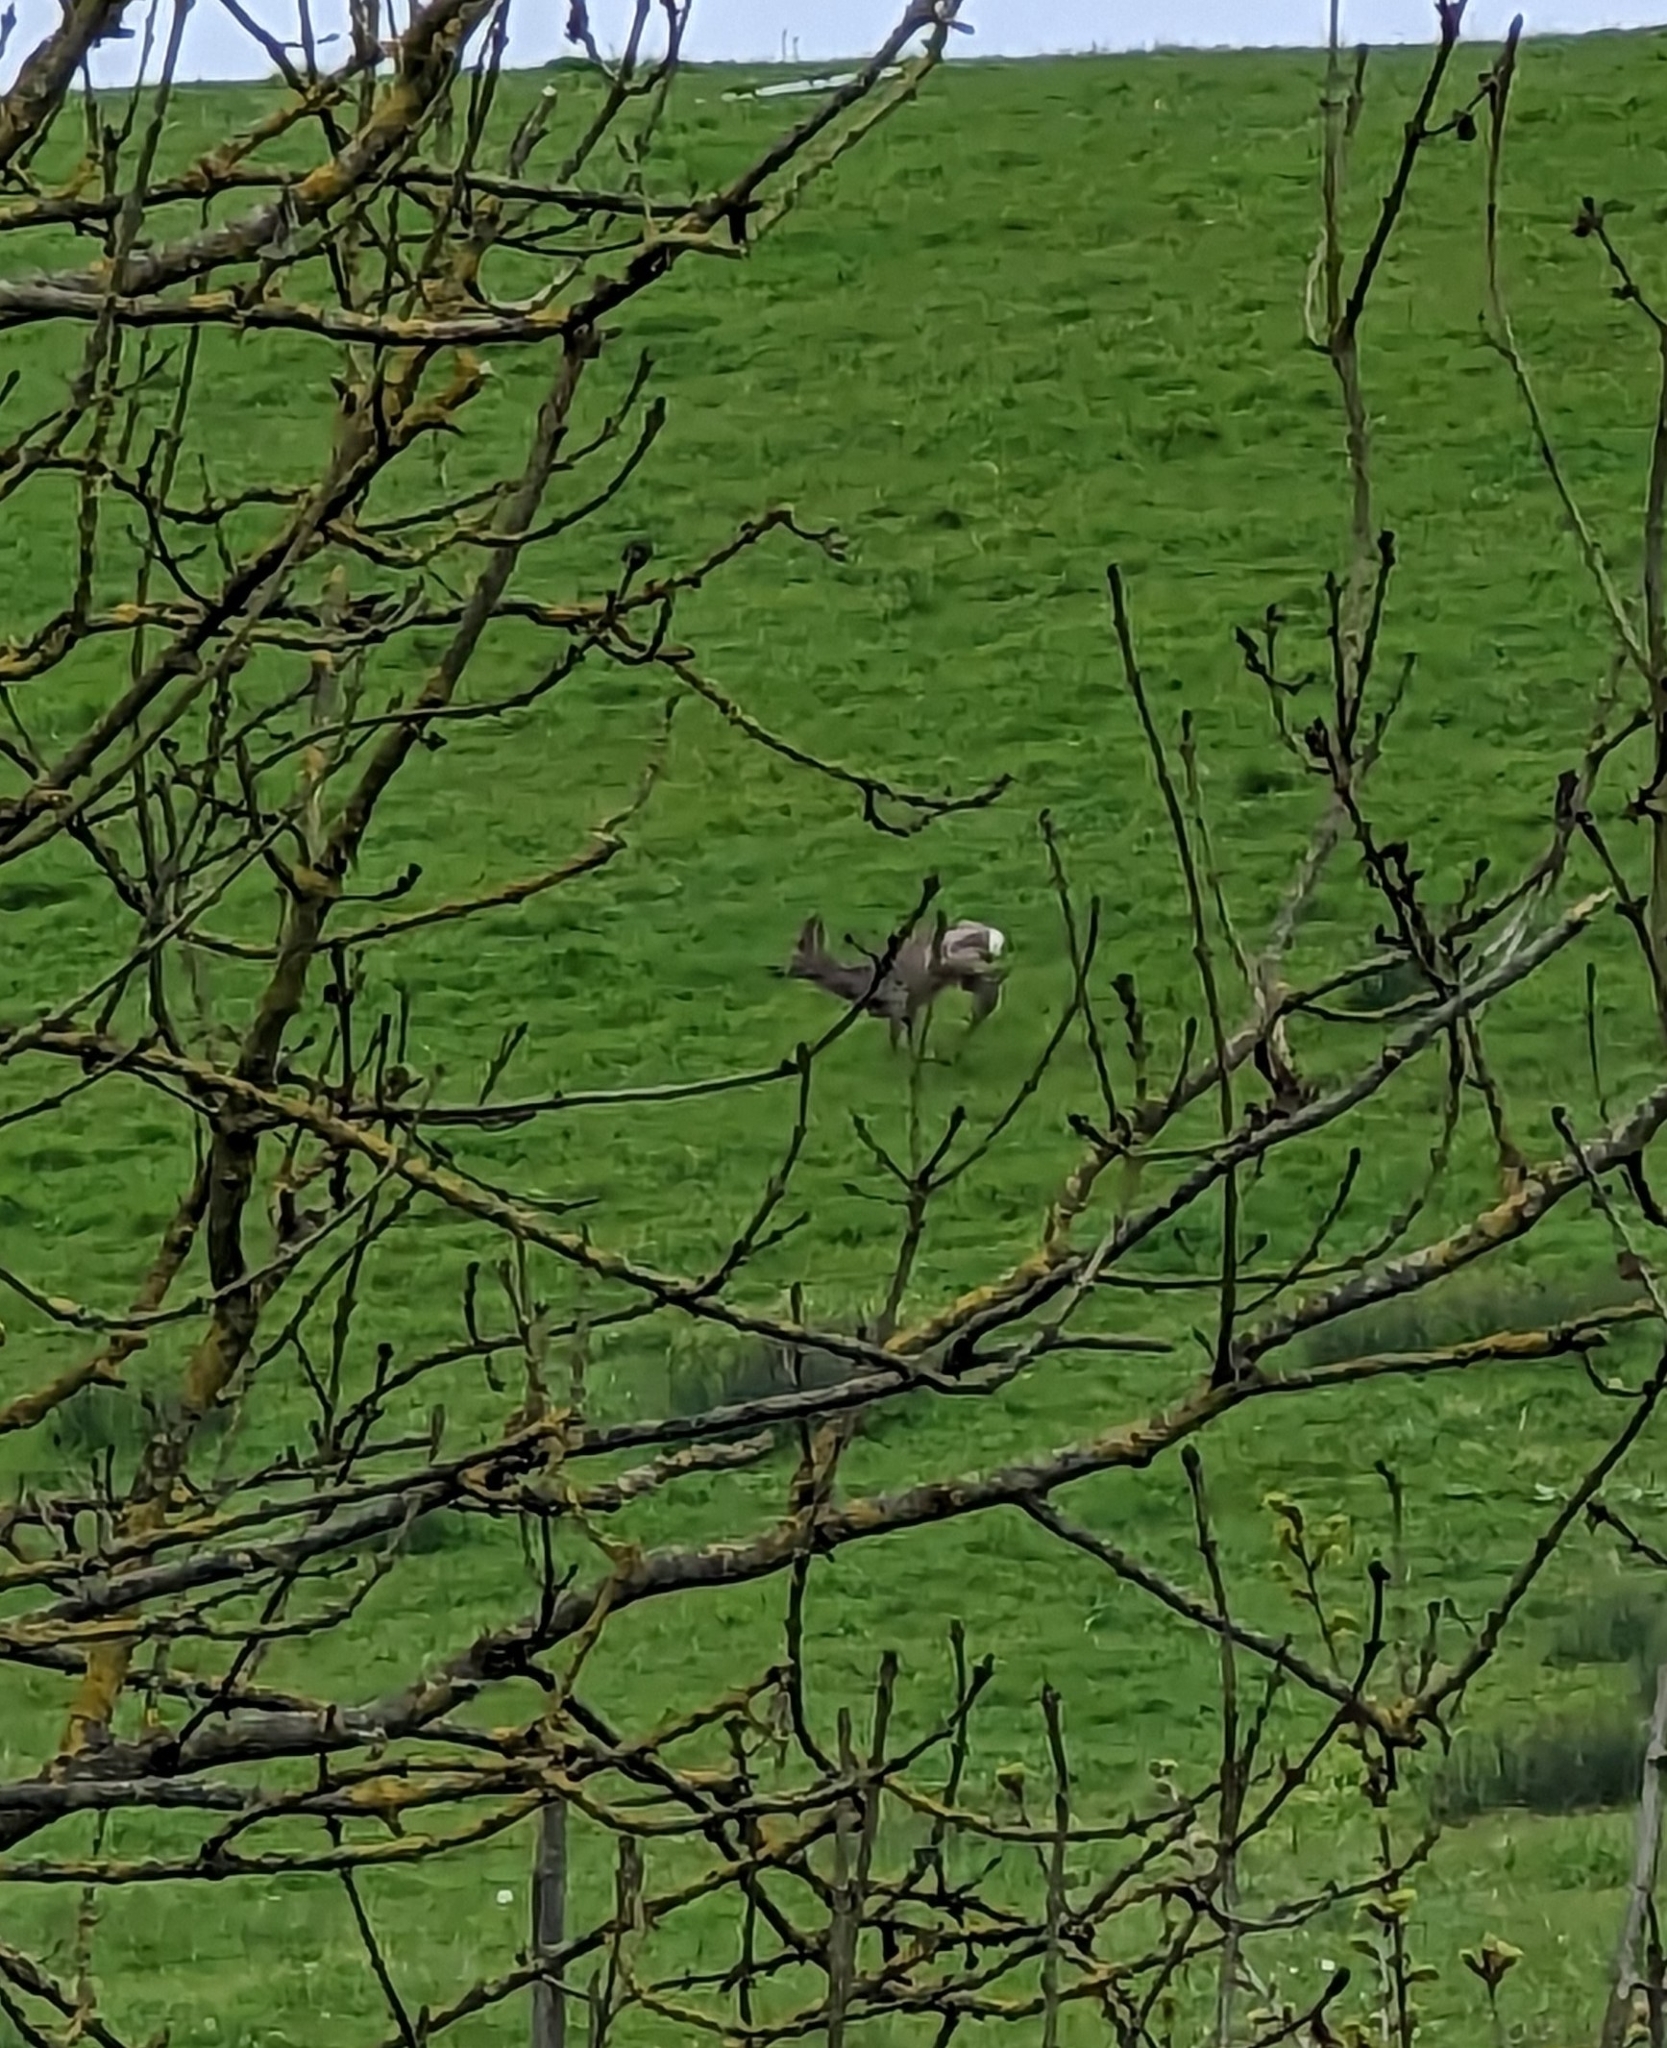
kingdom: Animalia
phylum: Chordata
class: Mammalia
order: Artiodactyla
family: Cervidae
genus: Capreolus
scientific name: Capreolus capreolus
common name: Western roe deer
